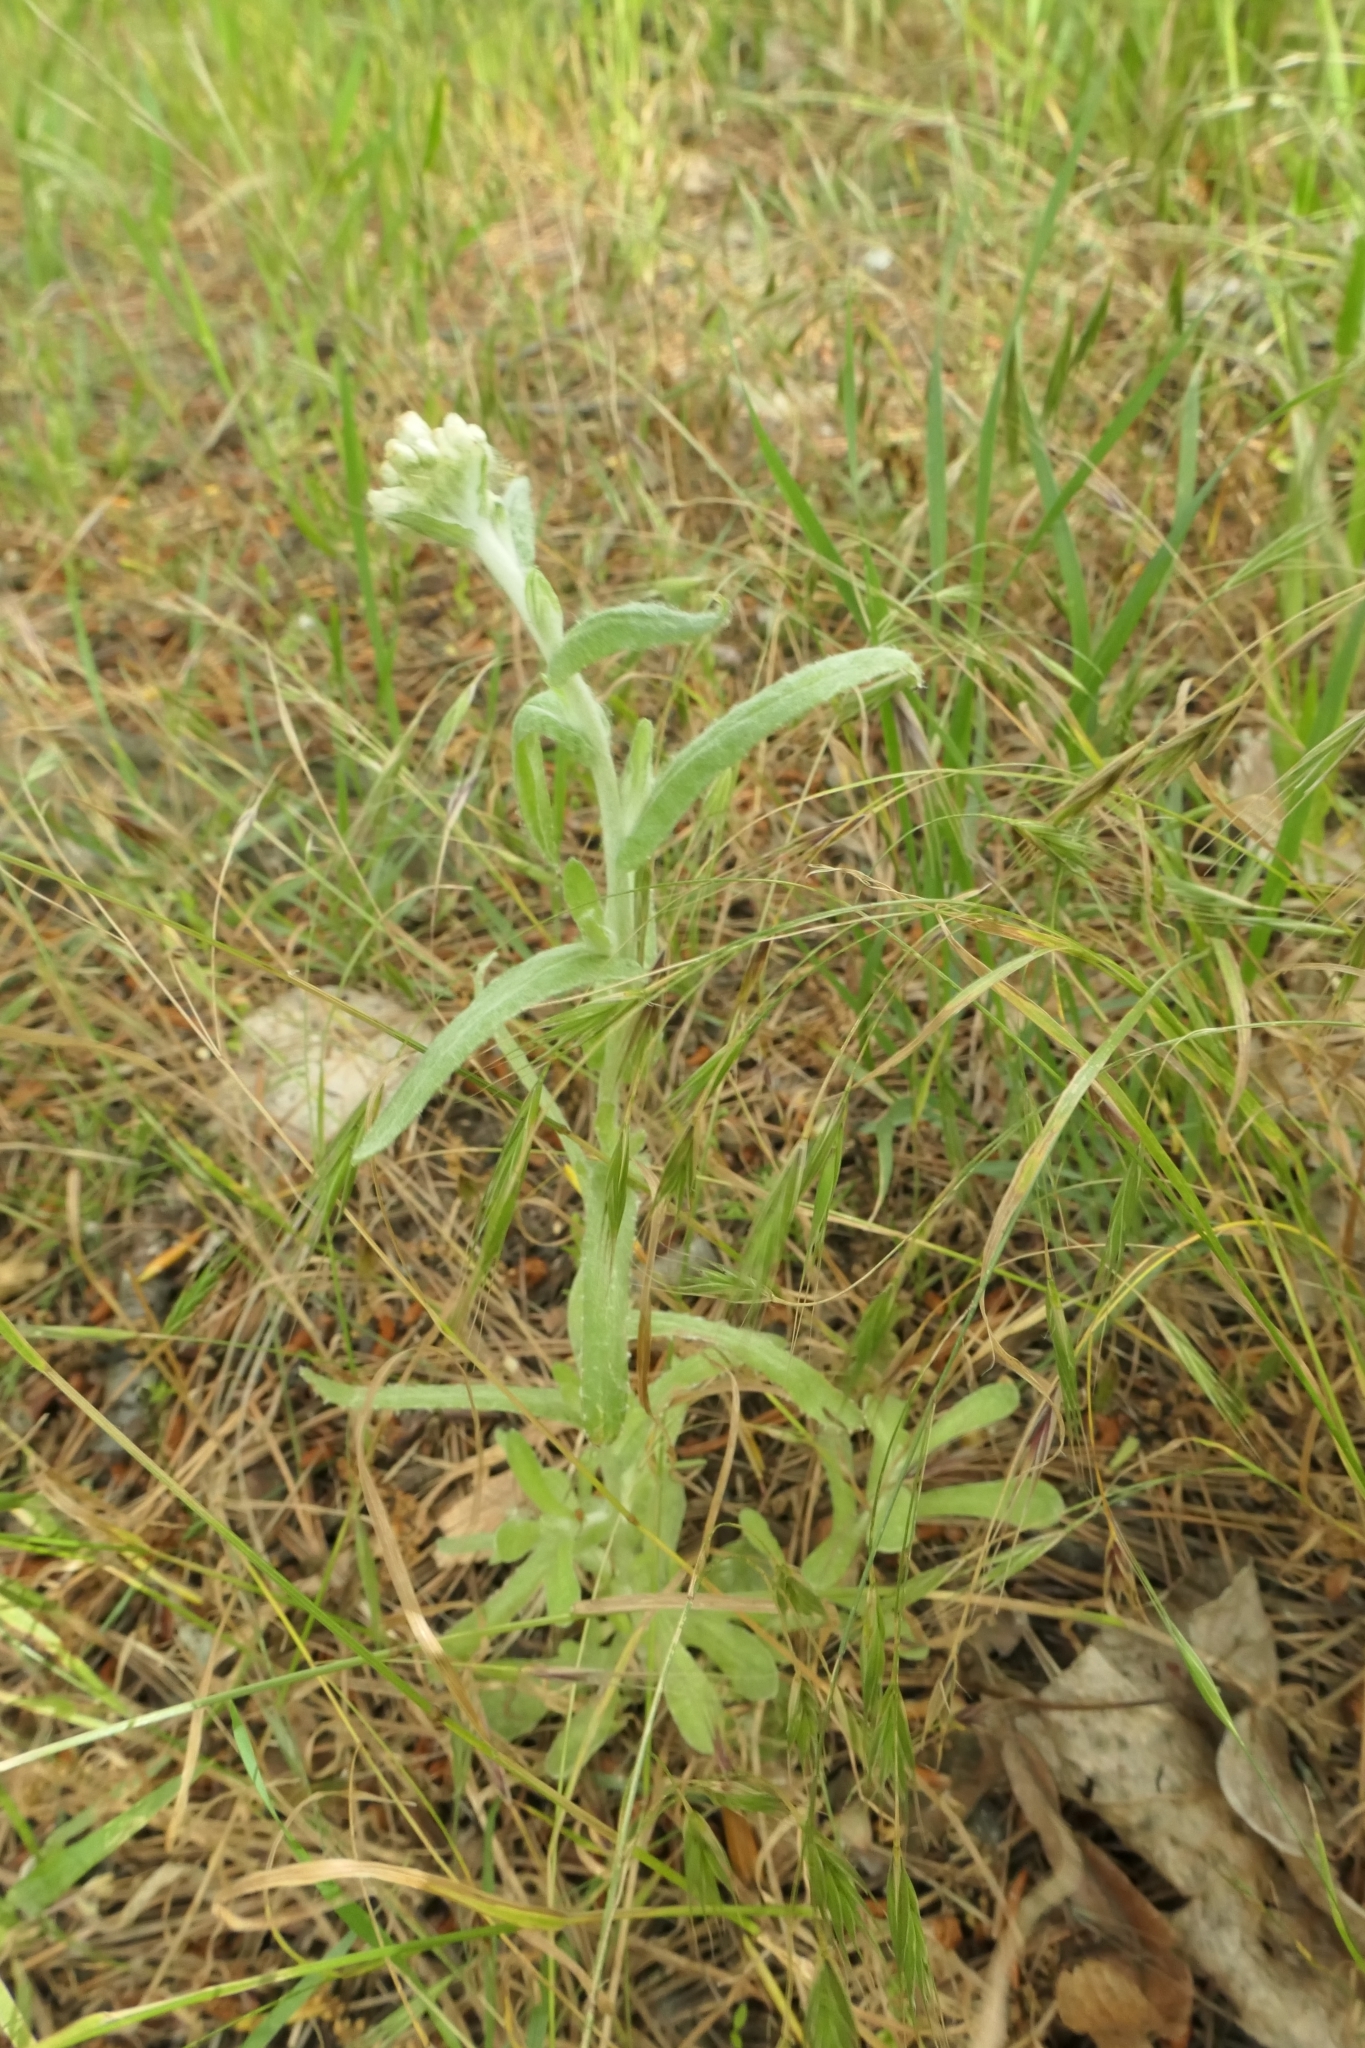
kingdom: Plantae
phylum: Tracheophyta
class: Magnoliopsida
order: Asterales
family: Asteraceae
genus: Helichrysum
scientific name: Helichrysum luteoalbum
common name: Daisy
